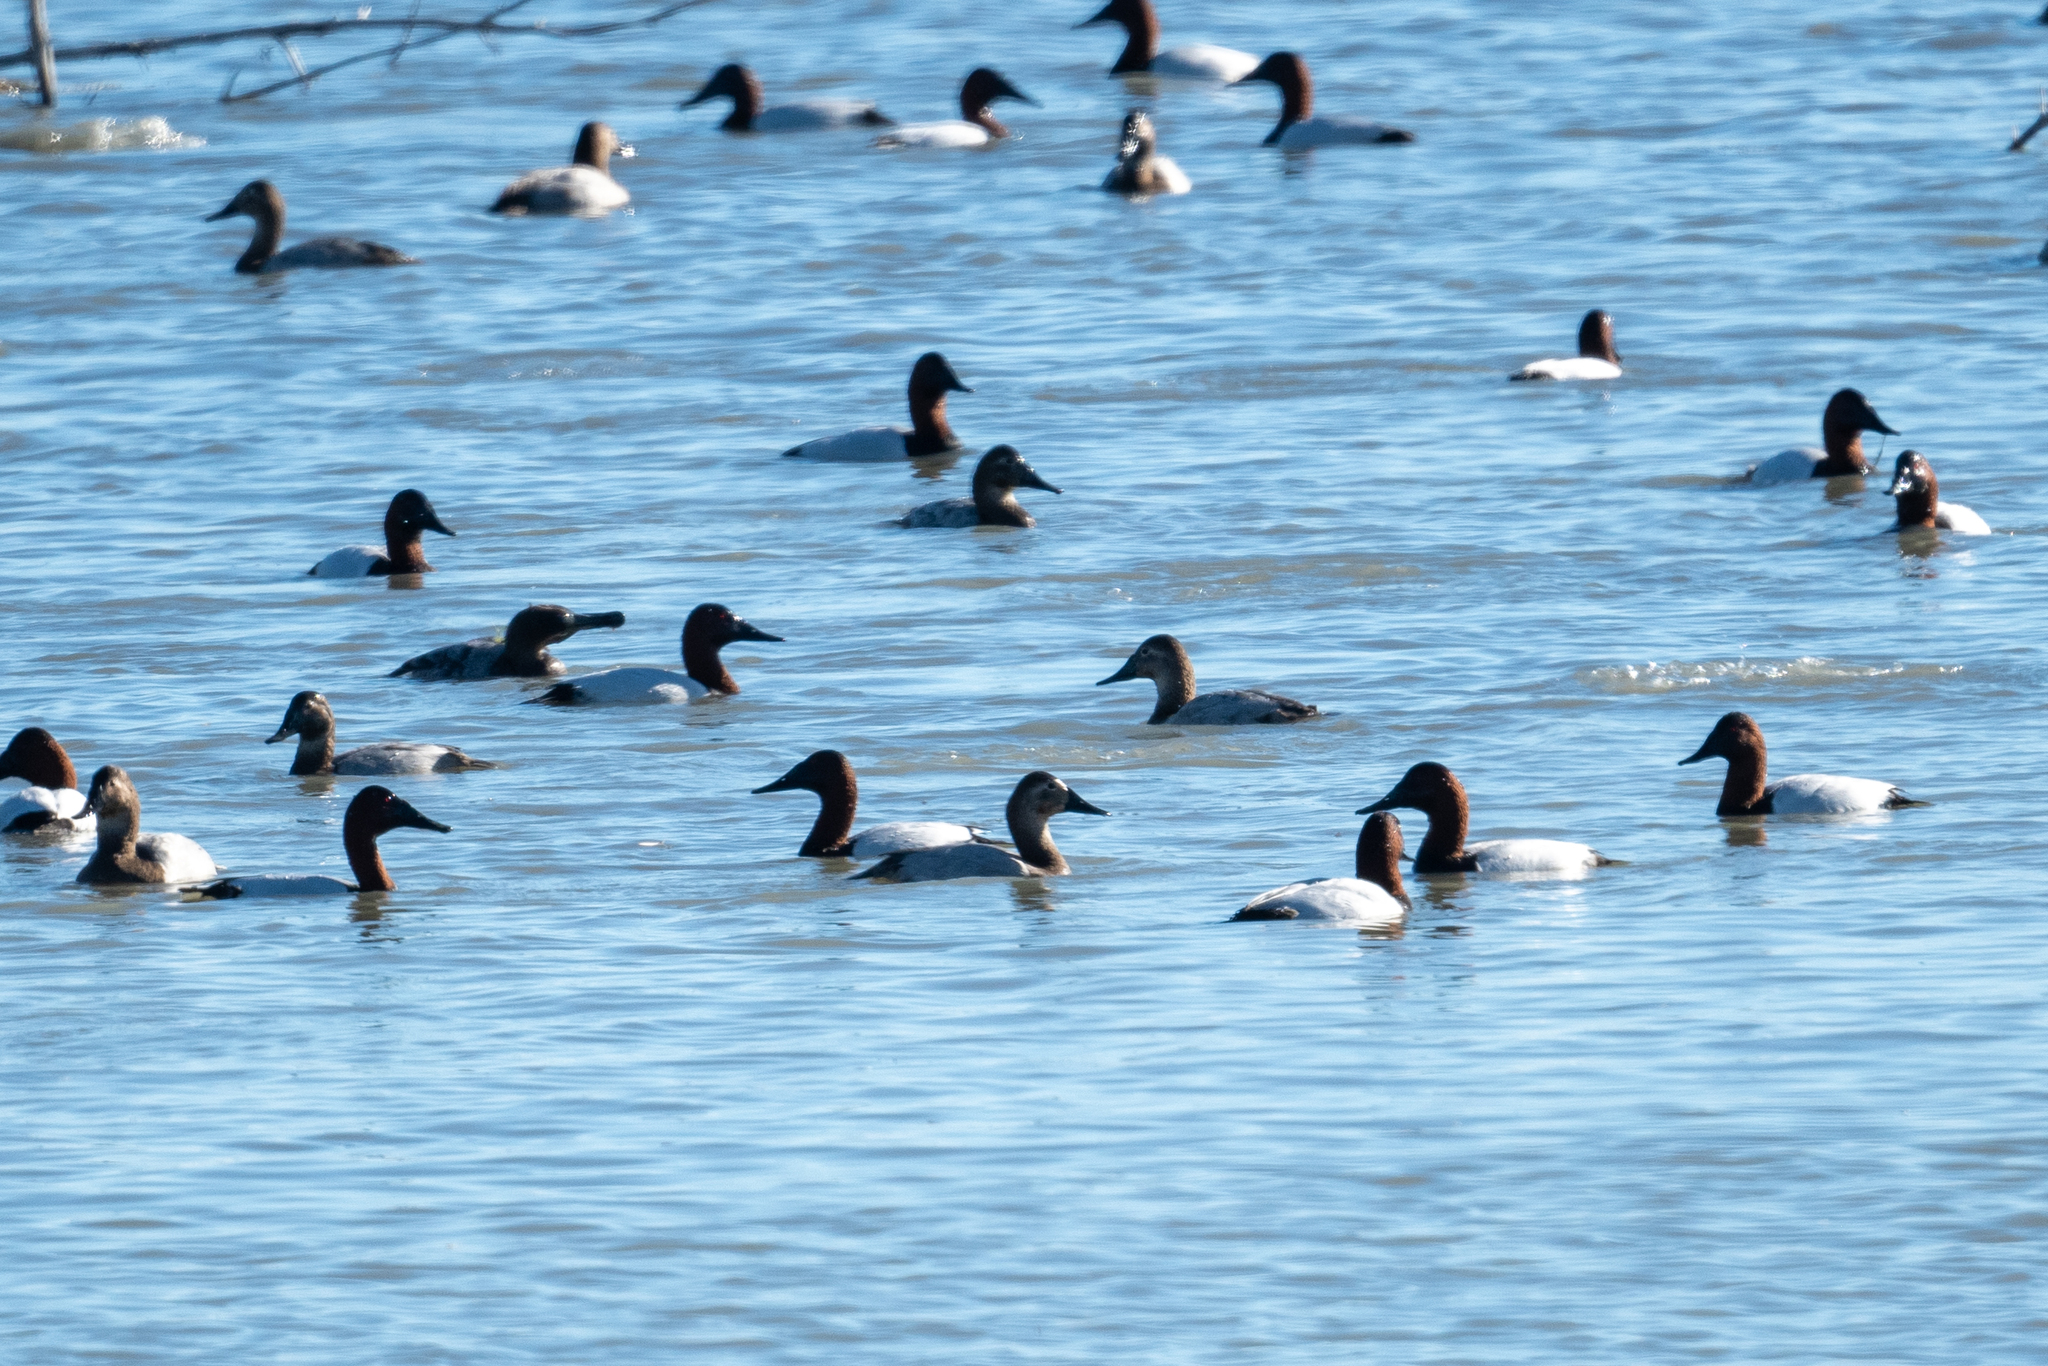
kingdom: Animalia
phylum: Chordata
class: Aves
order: Anseriformes
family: Anatidae
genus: Aythya
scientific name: Aythya valisineria
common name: Canvasback
